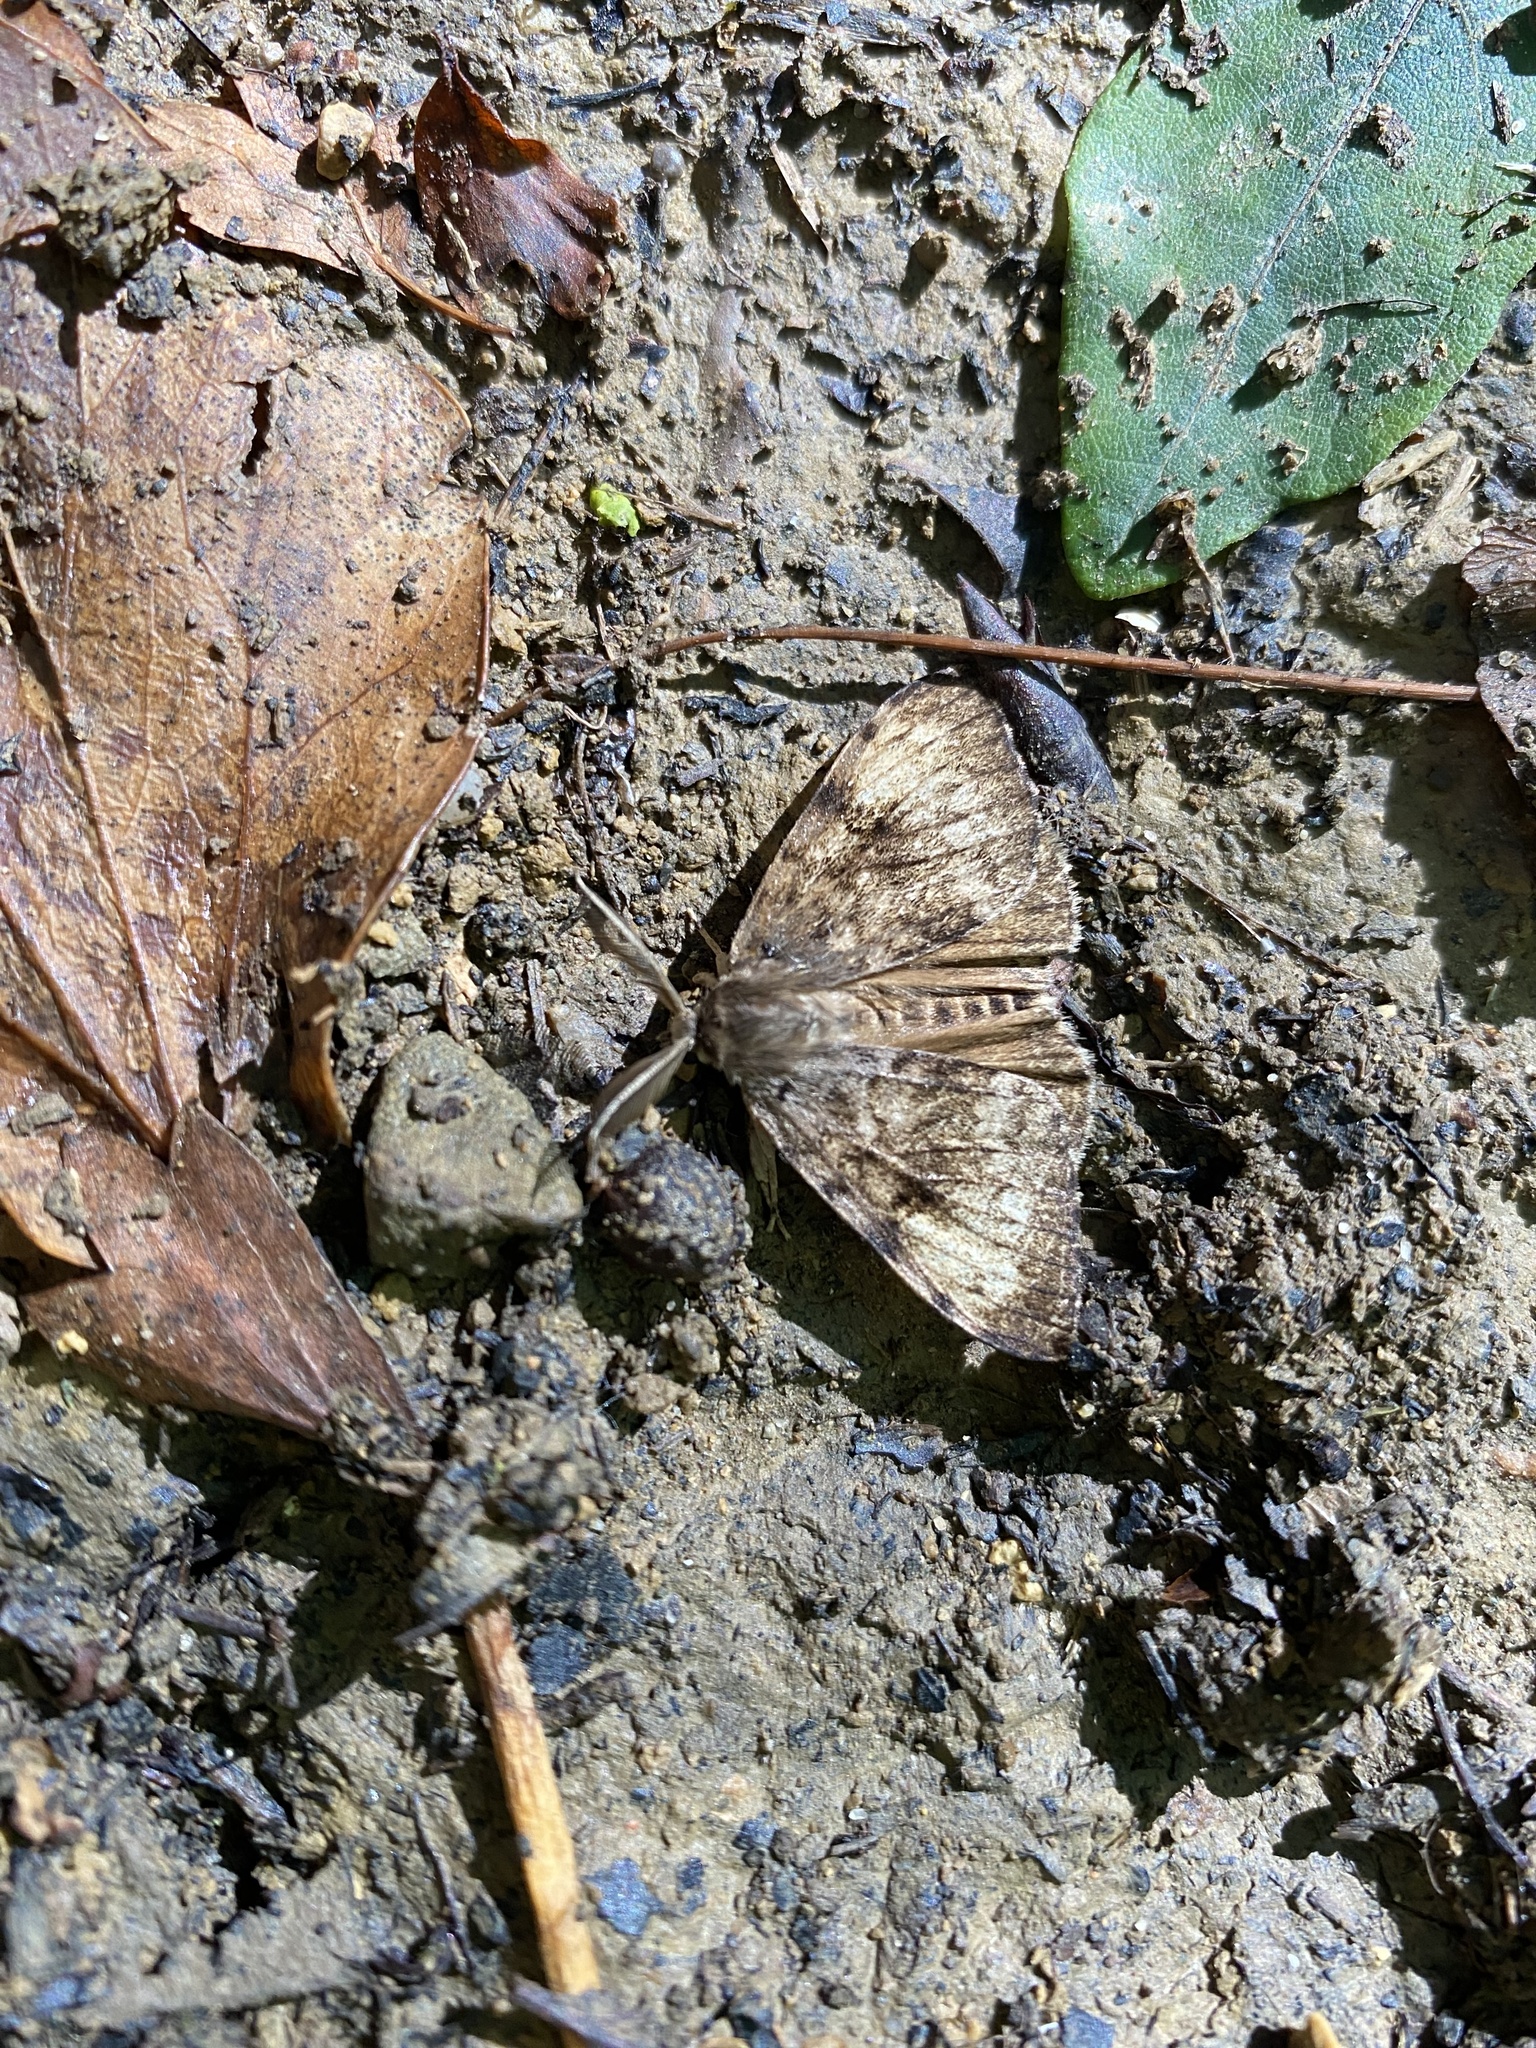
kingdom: Animalia
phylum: Arthropoda
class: Insecta
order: Lepidoptera
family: Erebidae
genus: Lymantria
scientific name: Lymantria dispar
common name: Gypsy moth
